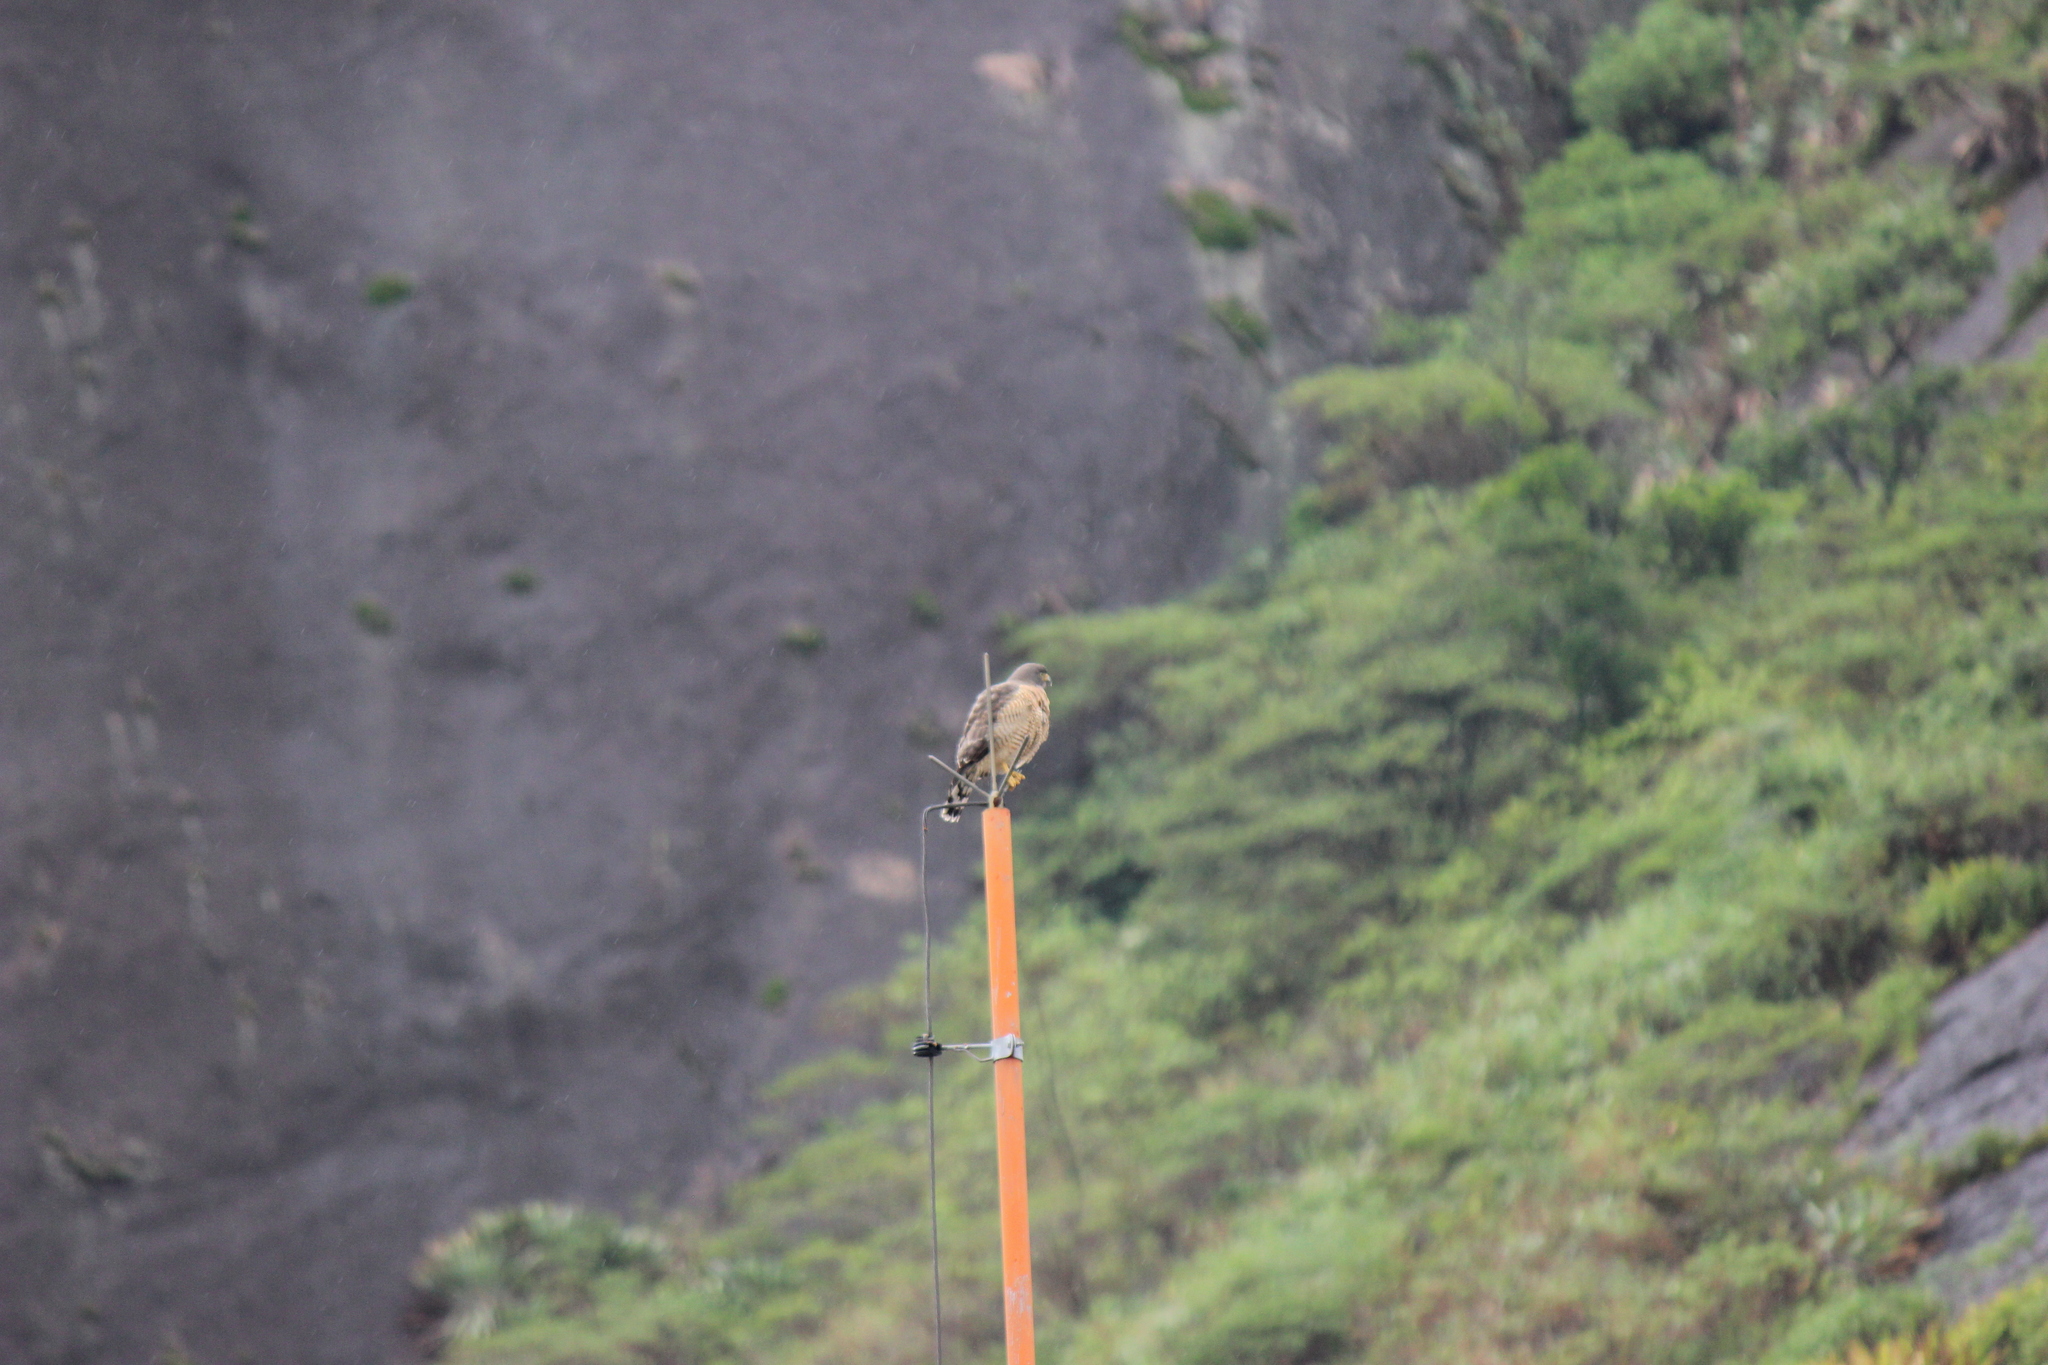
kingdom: Animalia
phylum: Chordata
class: Aves
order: Accipitriformes
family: Accipitridae
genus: Rupornis
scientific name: Rupornis magnirostris
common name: Roadside hawk
